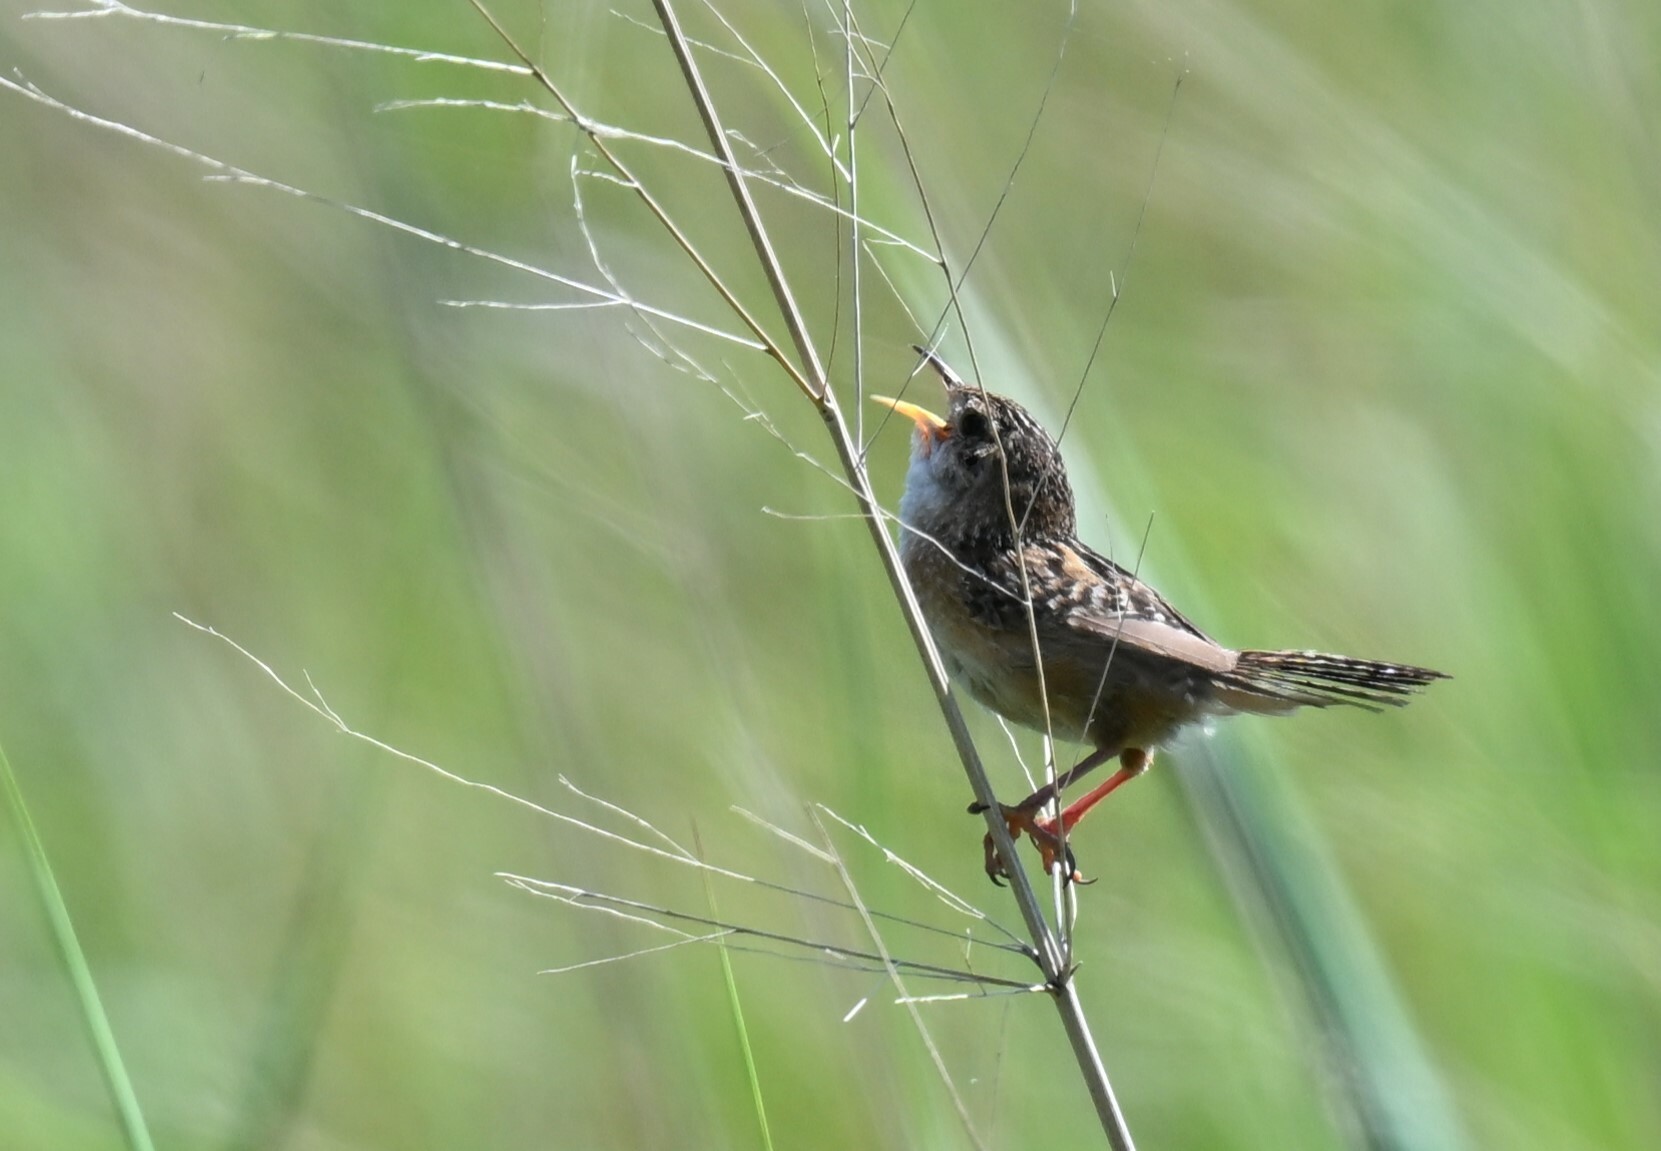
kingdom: Animalia
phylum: Chordata
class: Aves
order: Passeriformes
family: Troglodytidae
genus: Cistothorus
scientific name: Cistothorus platensis
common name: Sedge wren
